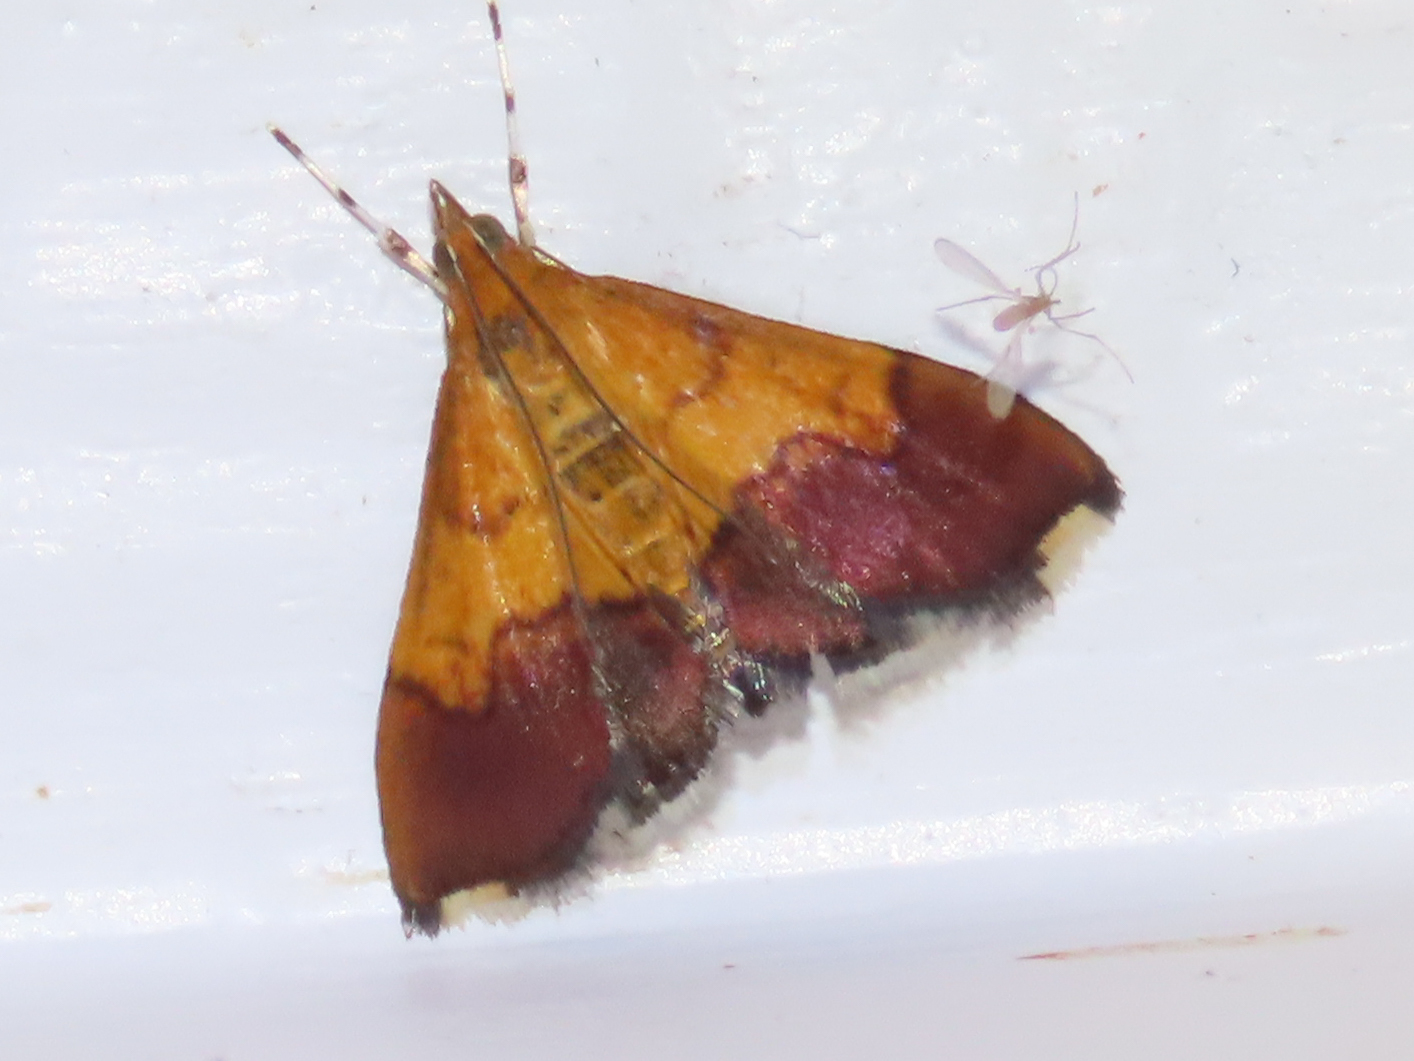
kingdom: Animalia
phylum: Arthropoda
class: Insecta
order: Lepidoptera
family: Crambidae
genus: Pyrausta
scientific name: Pyrausta bicoloralis
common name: Bicolored pyrausta moth
